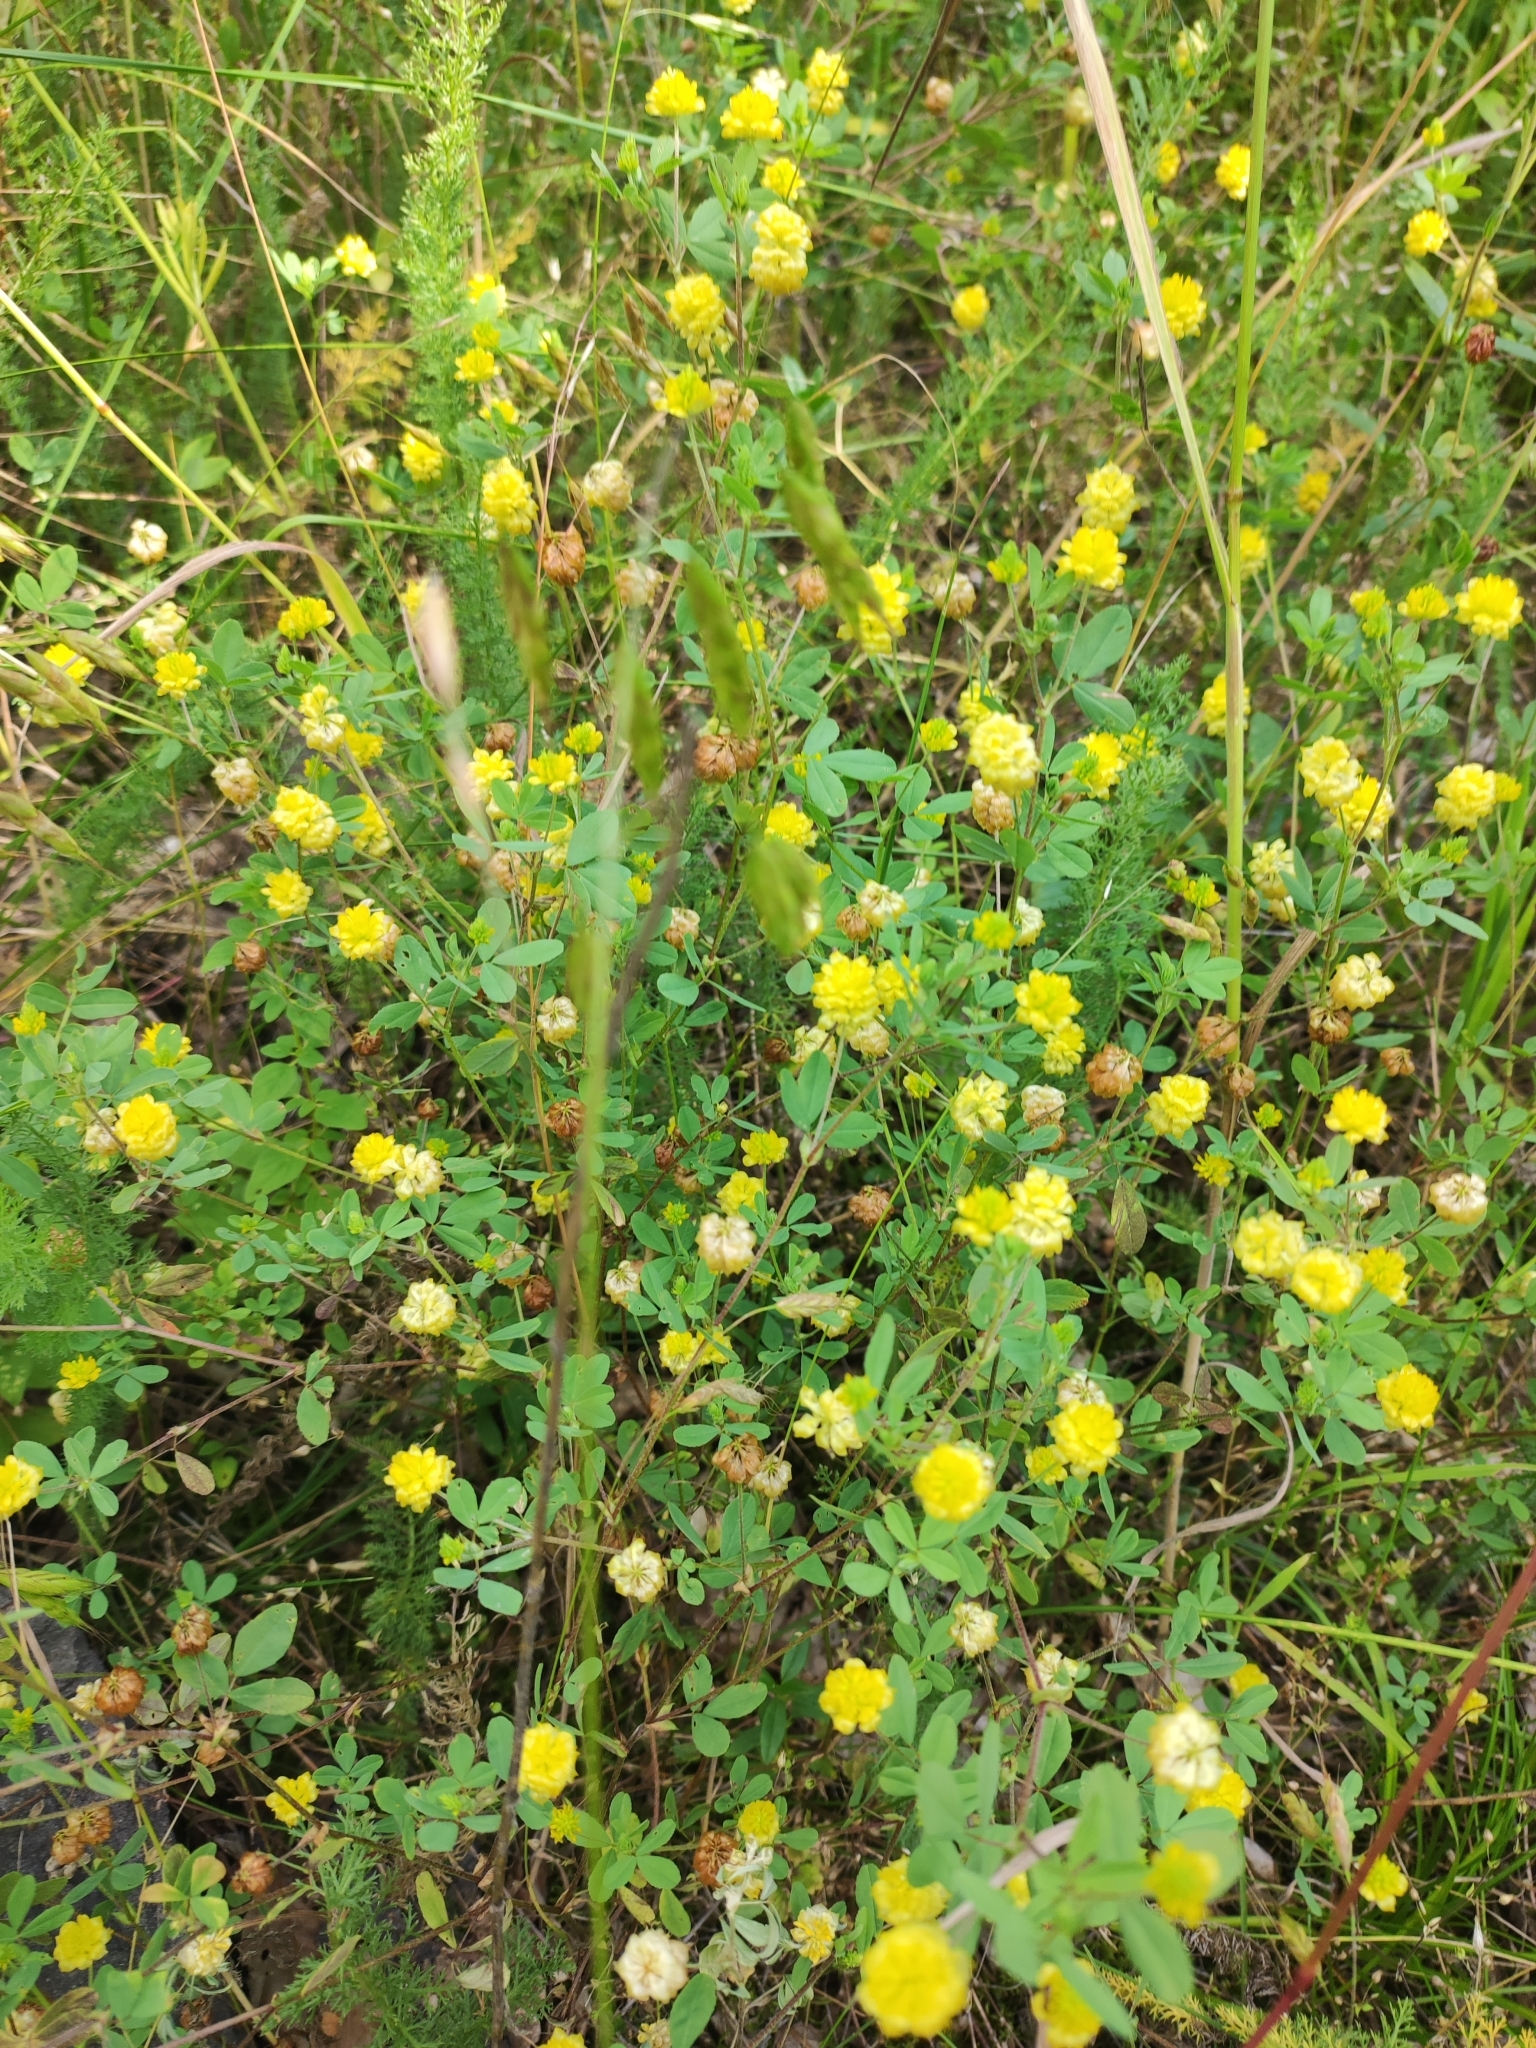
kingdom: Plantae
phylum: Tracheophyta
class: Magnoliopsida
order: Fabales
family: Fabaceae
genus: Trifolium
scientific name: Trifolium campestre
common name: Field clover
